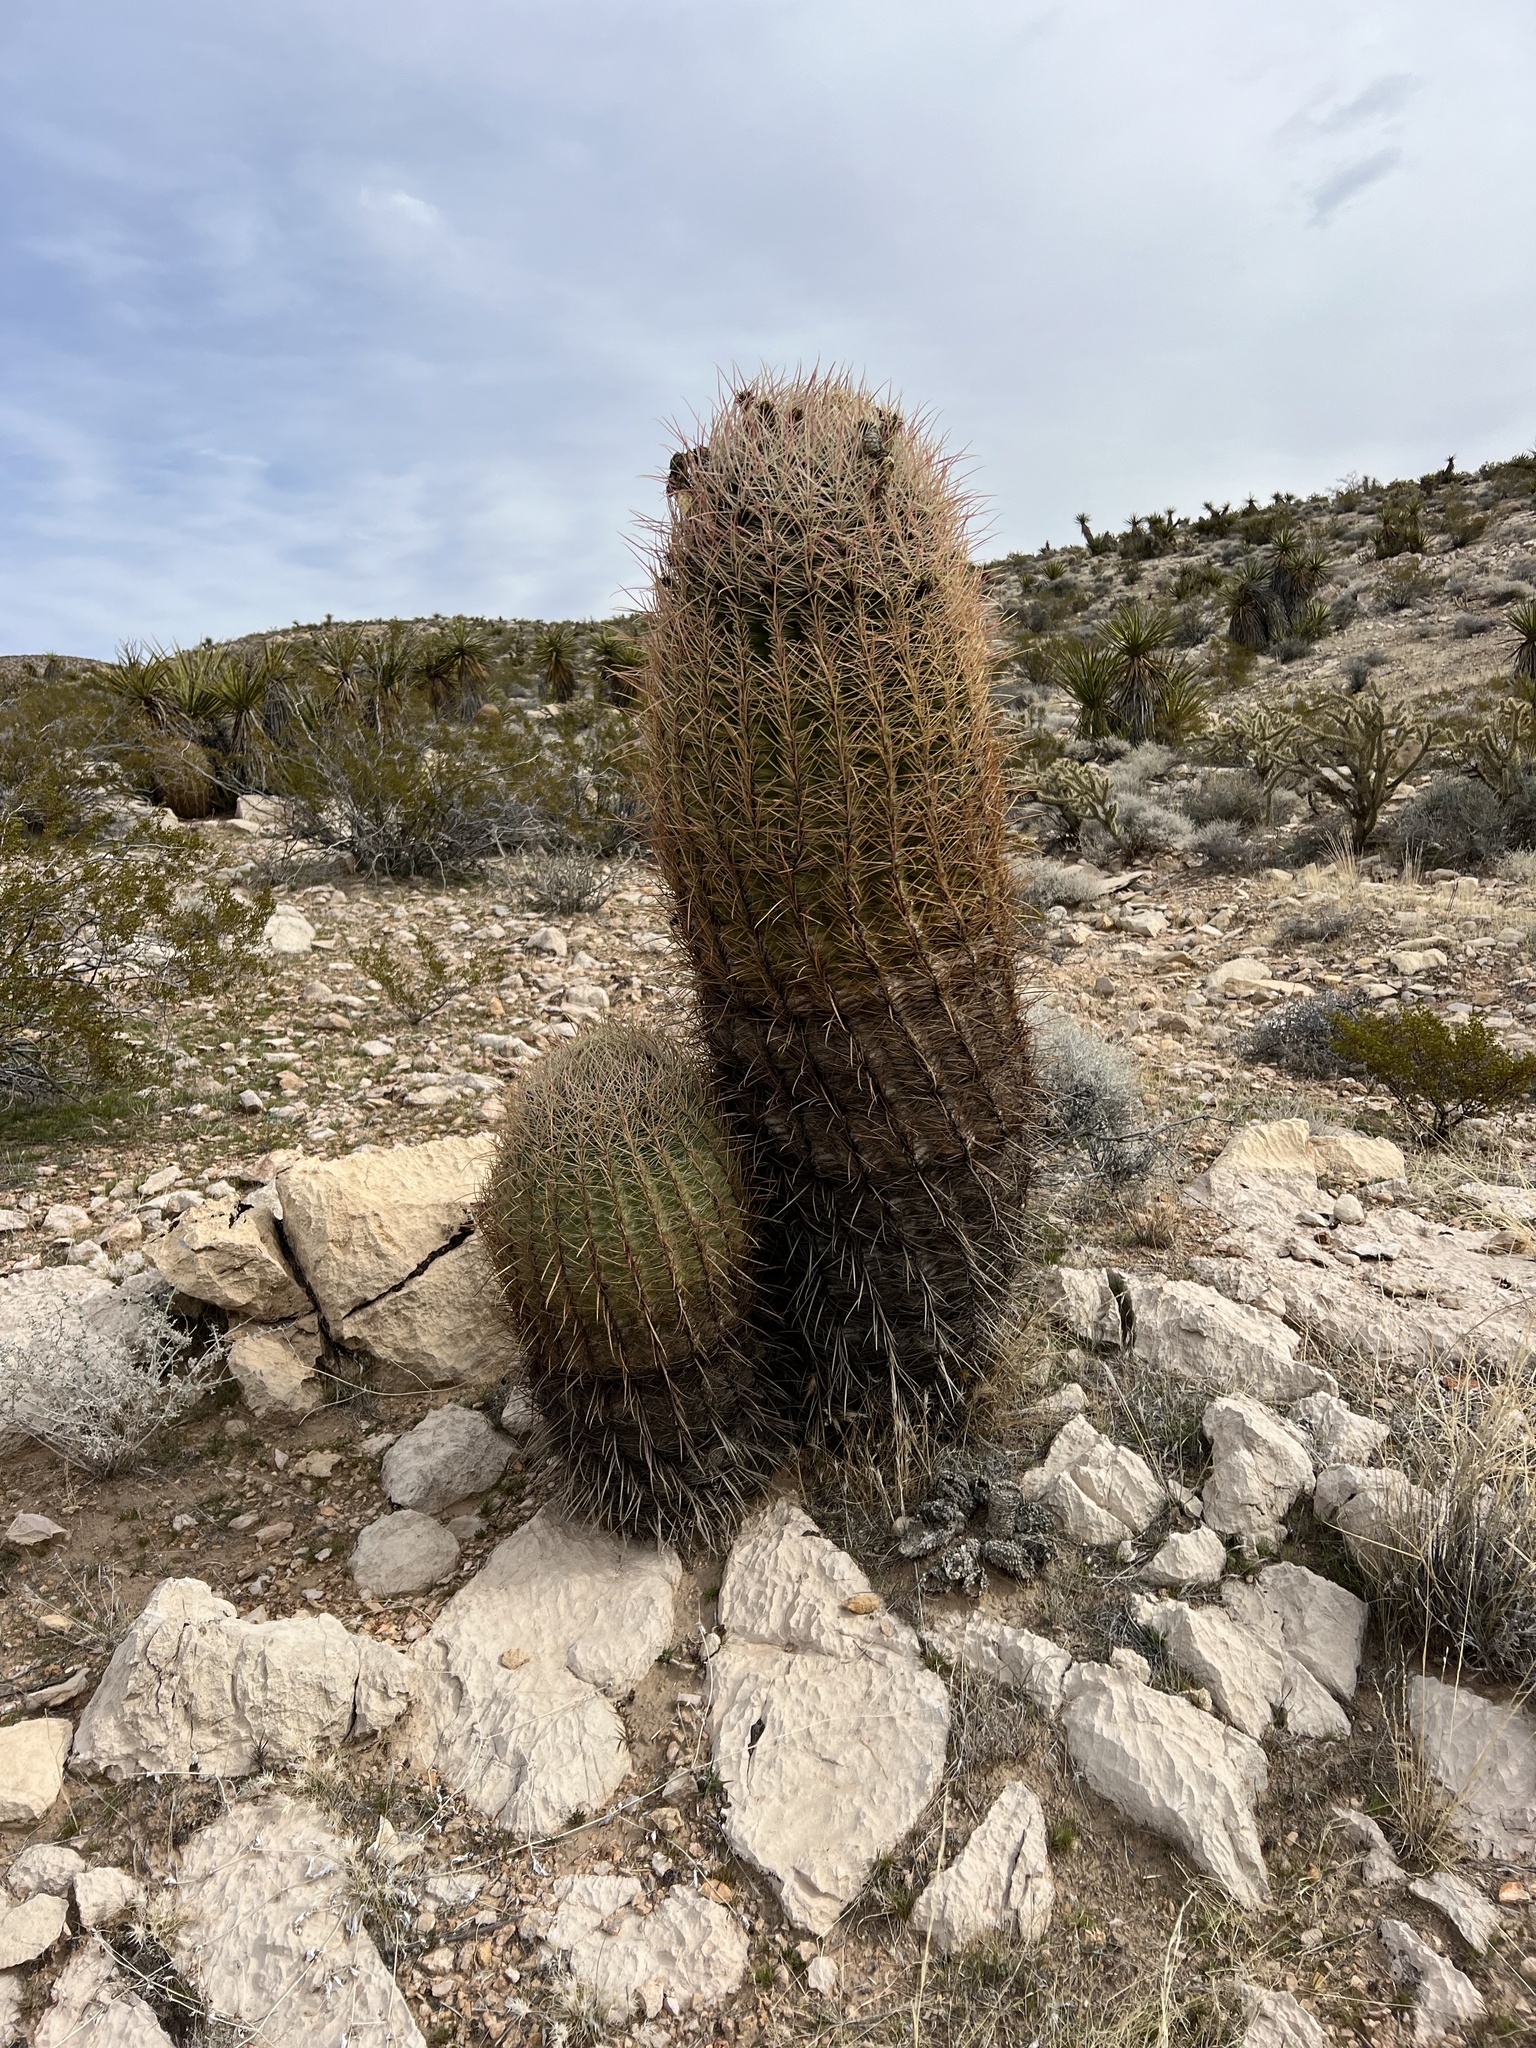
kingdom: Plantae
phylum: Tracheophyta
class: Magnoliopsida
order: Caryophyllales
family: Cactaceae
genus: Ferocactus
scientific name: Ferocactus cylindraceus
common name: California barrel cactus
